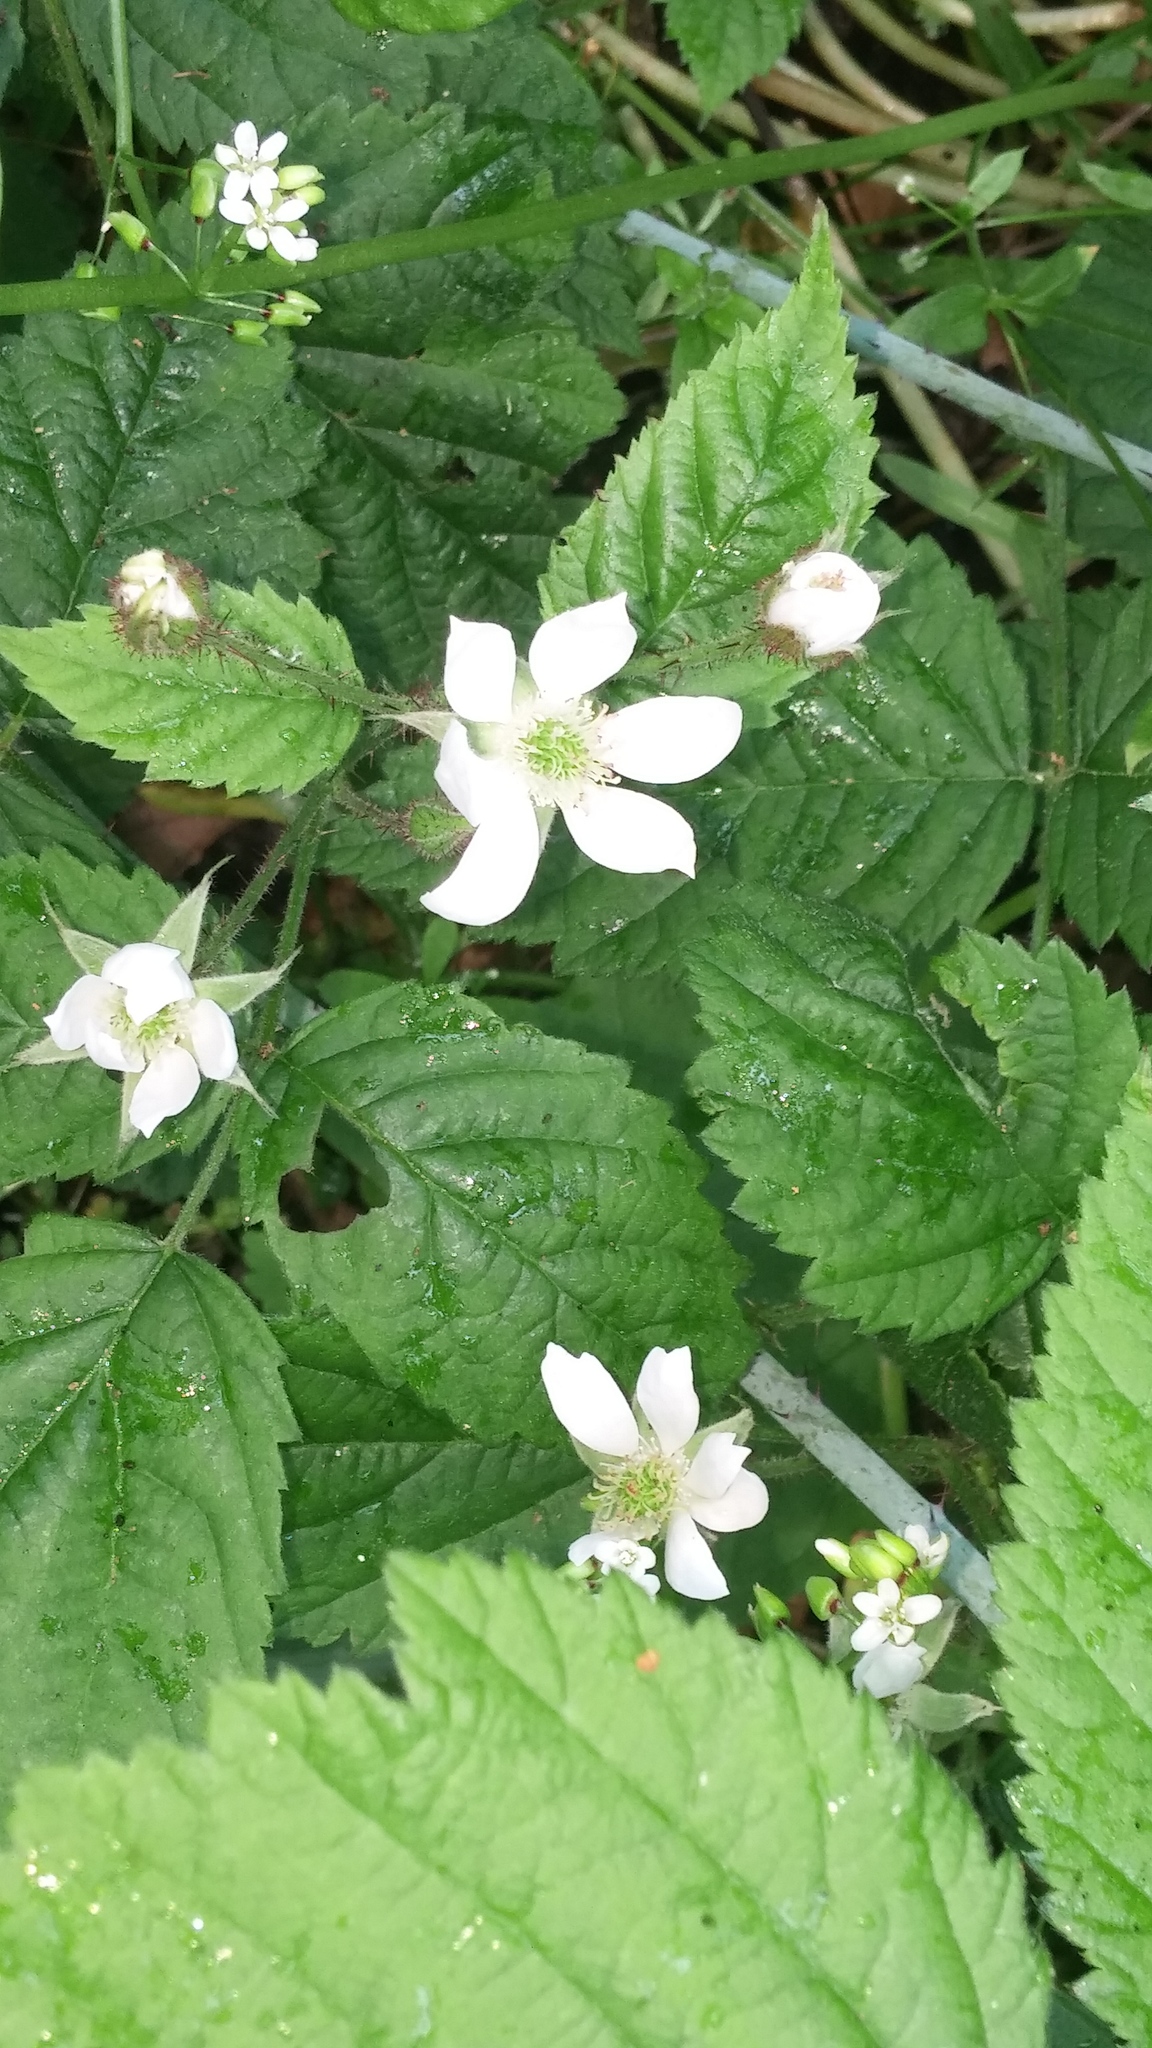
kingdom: Plantae
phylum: Tracheophyta
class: Magnoliopsida
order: Rosales
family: Rosaceae
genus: Rubus
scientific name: Rubus ursinus
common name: Pacific blackberry
